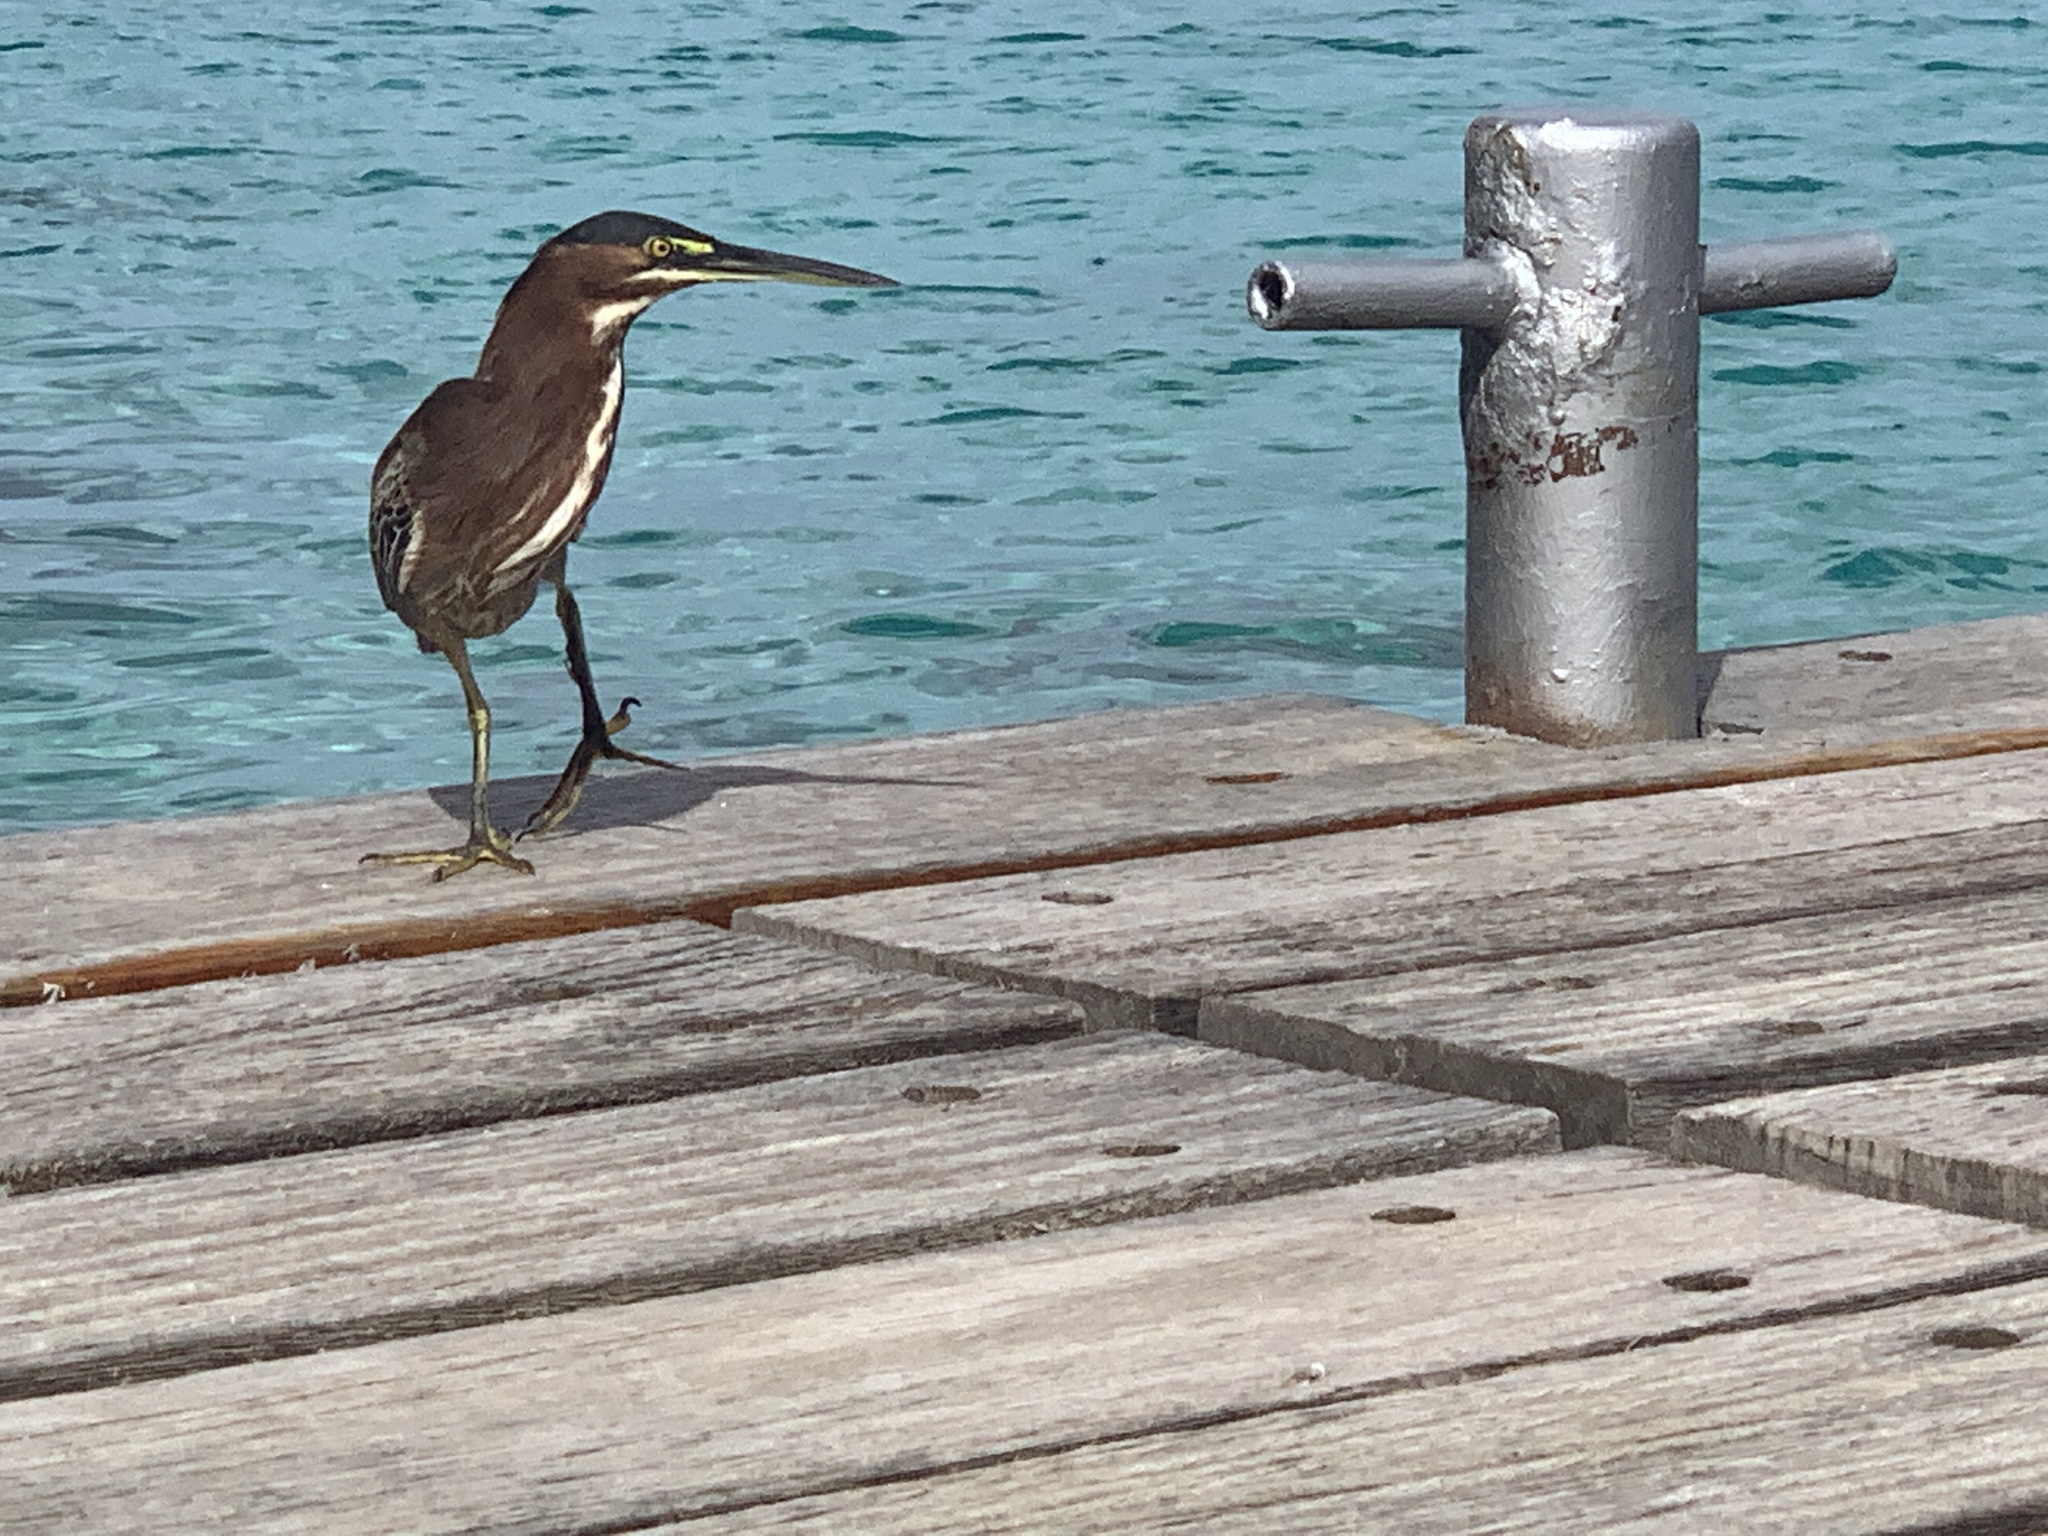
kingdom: Animalia
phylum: Chordata
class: Aves
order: Pelecaniformes
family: Ardeidae
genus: Butorides
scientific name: Butorides virescens
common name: Green heron
